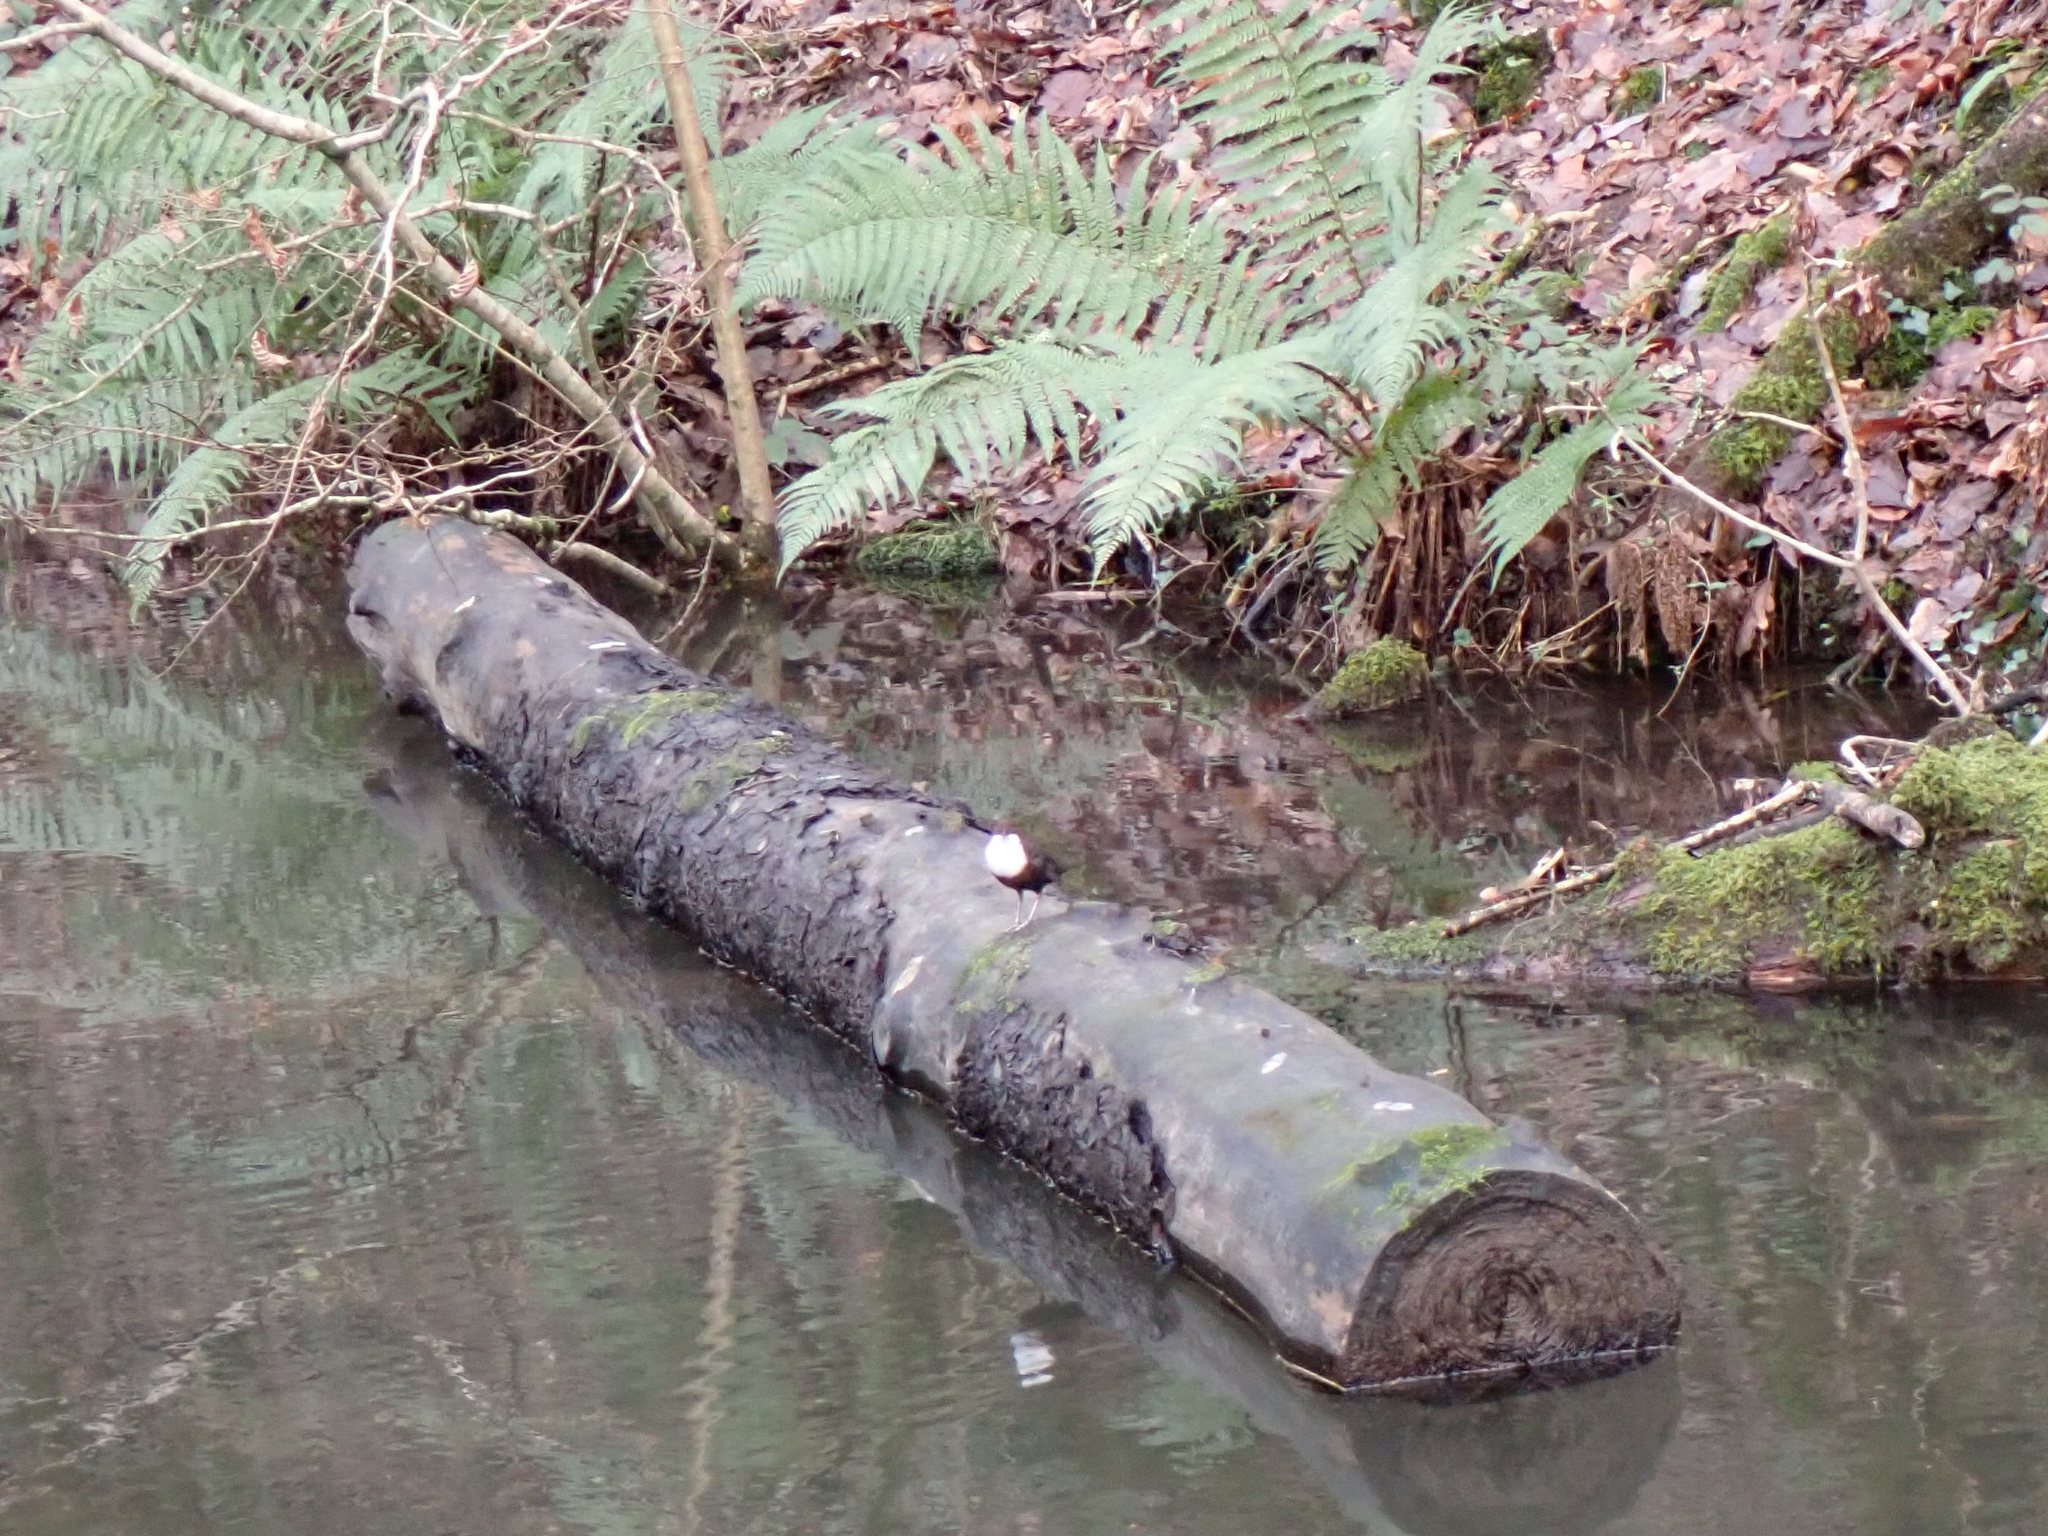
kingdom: Animalia
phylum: Chordata
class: Aves
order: Passeriformes
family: Cinclidae
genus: Cinclus
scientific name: Cinclus cinclus
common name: White-throated dipper
